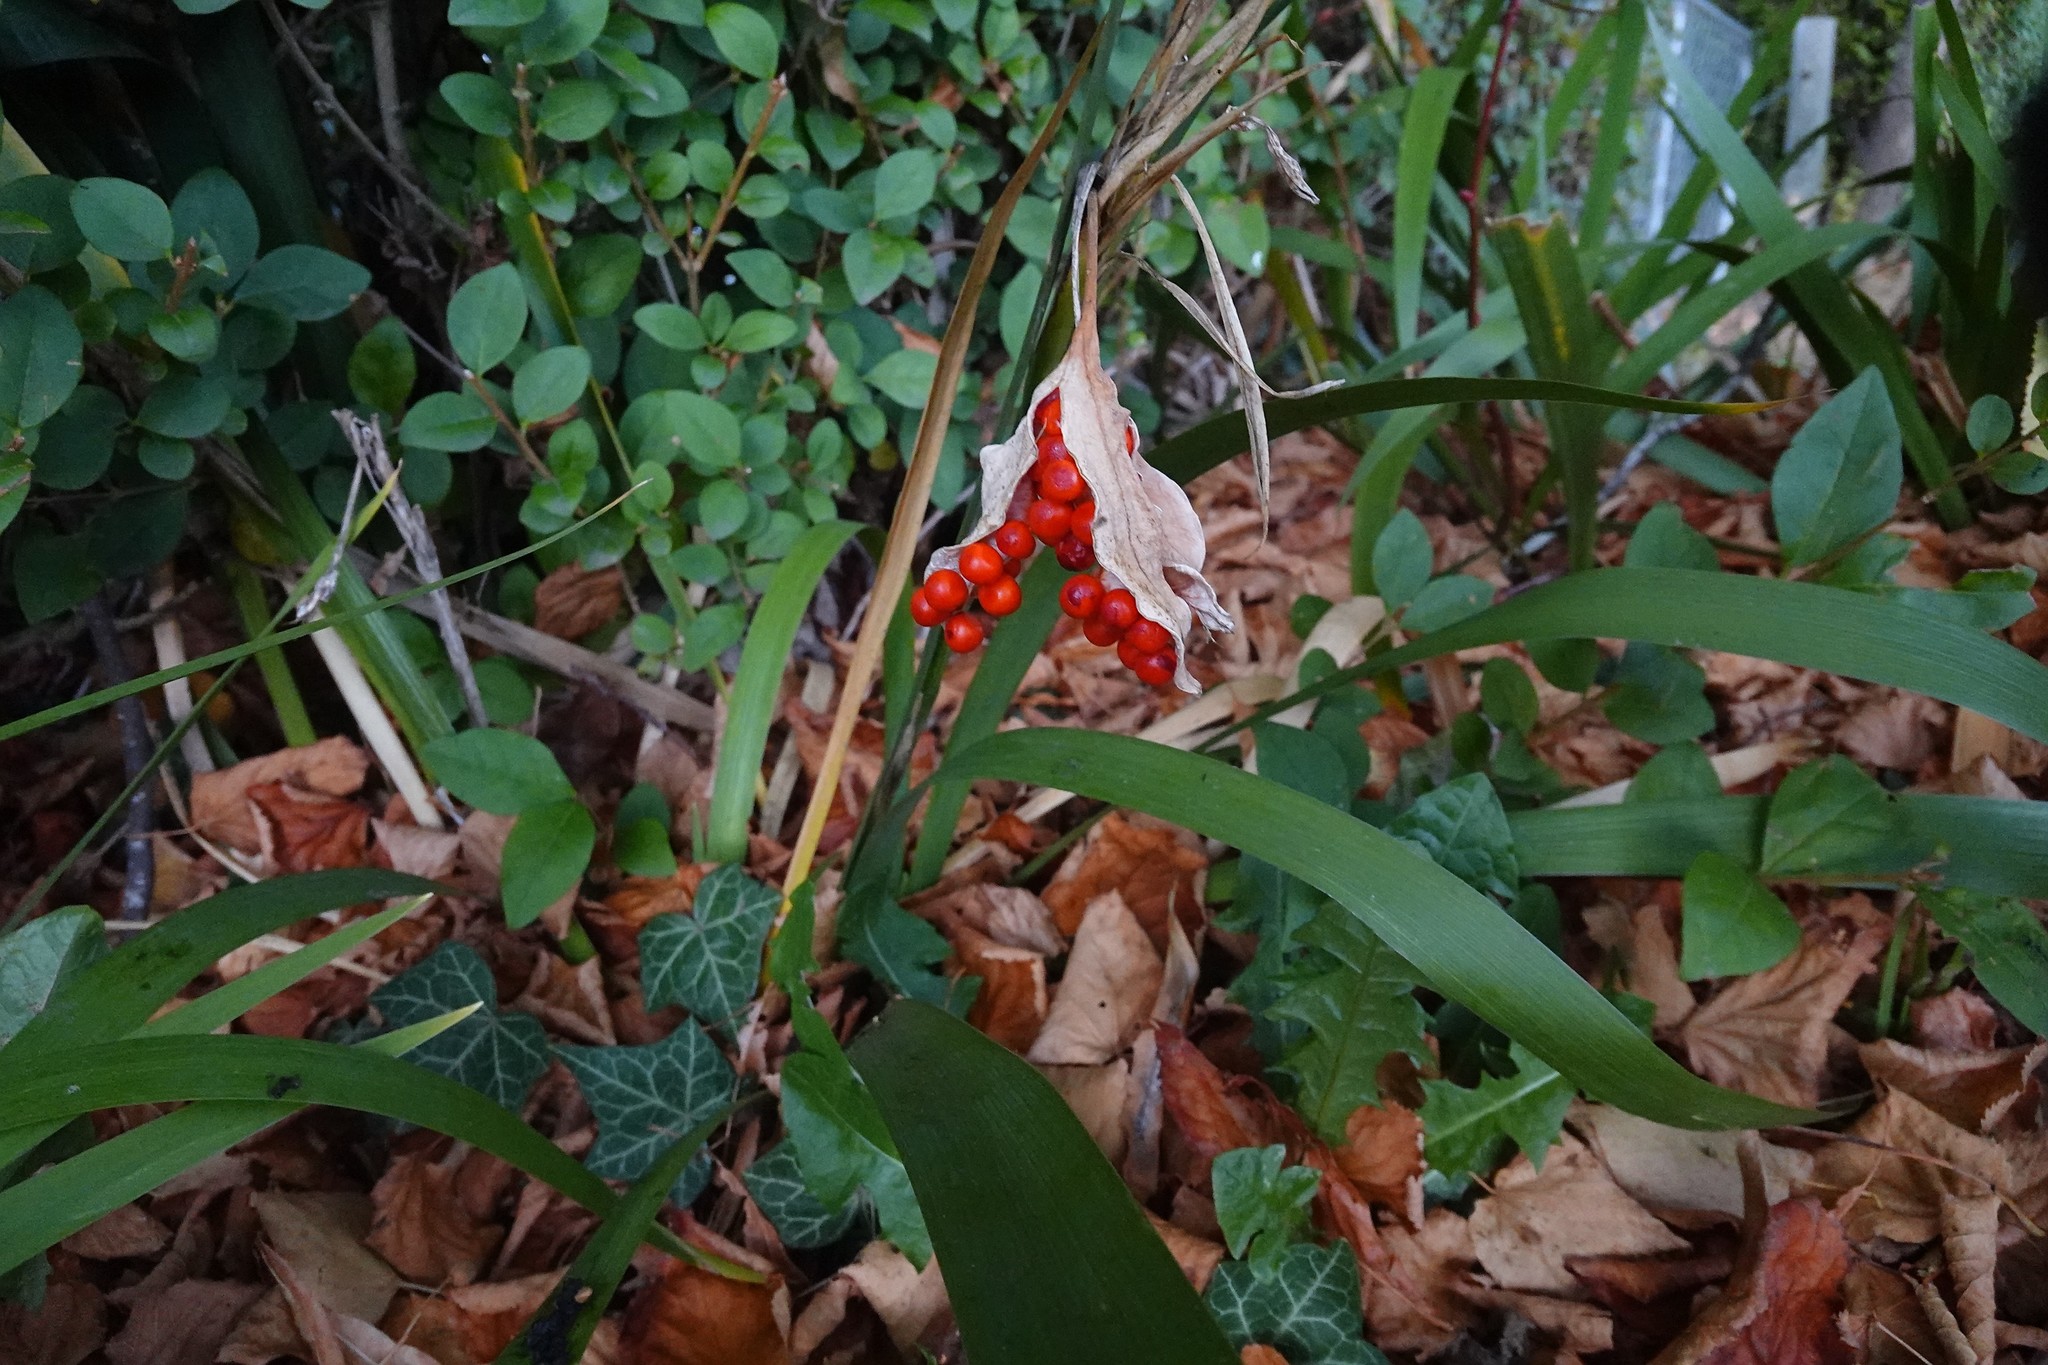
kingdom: Plantae
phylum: Tracheophyta
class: Liliopsida
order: Asparagales
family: Iridaceae
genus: Iris
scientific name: Iris foetidissima
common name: Stinking iris
